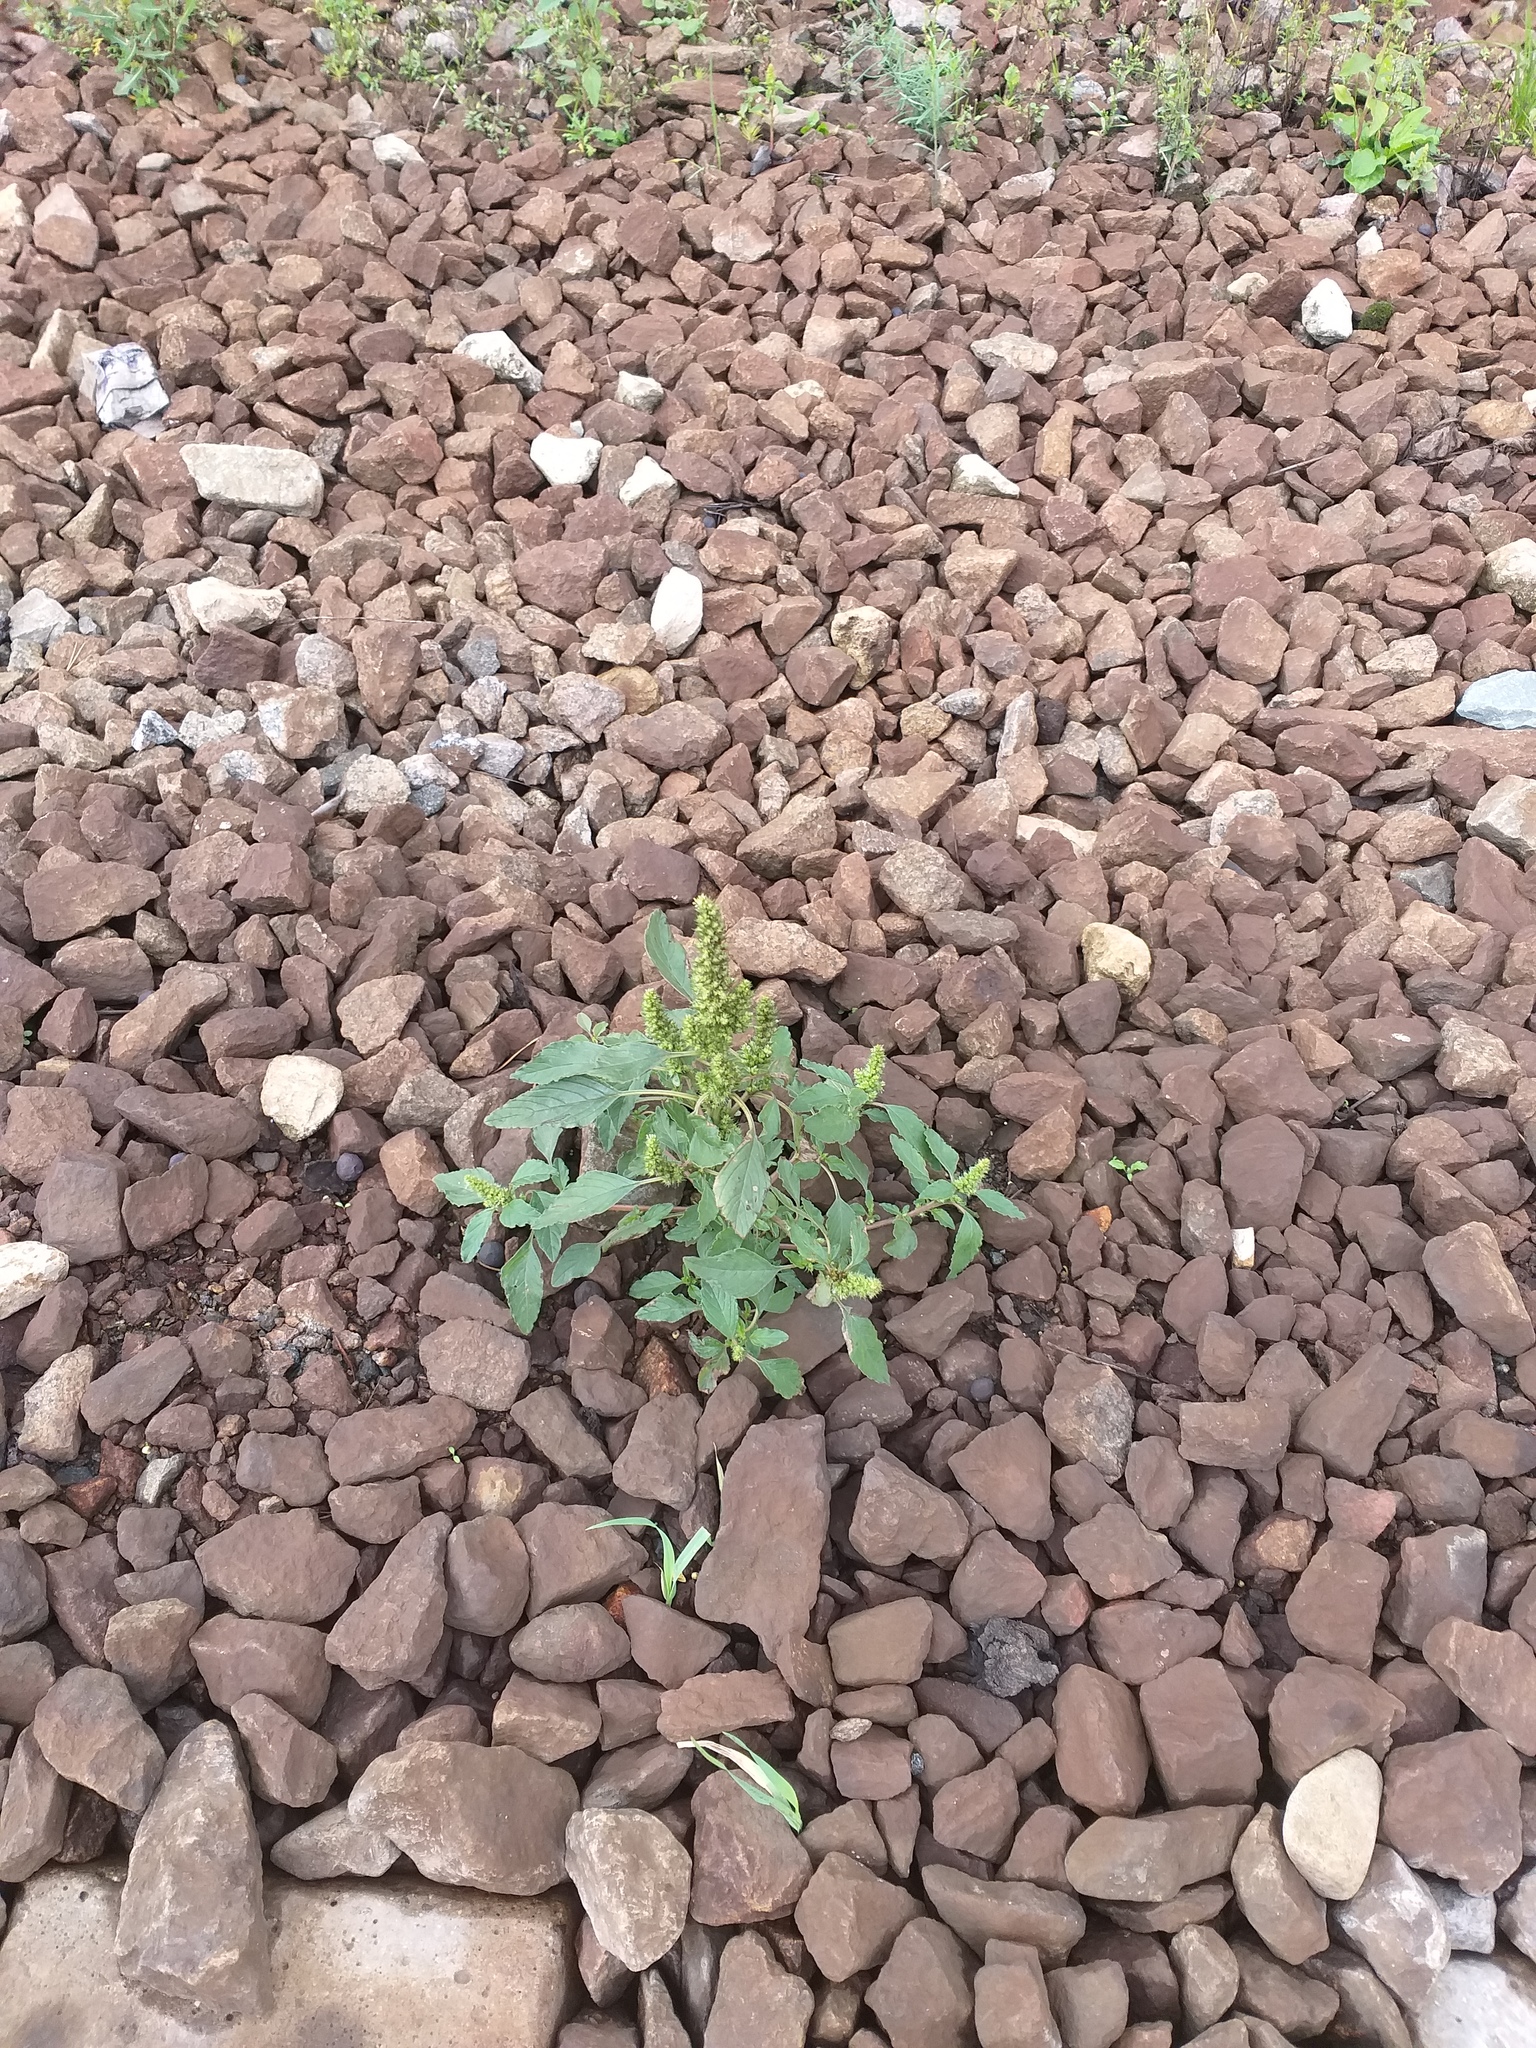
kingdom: Plantae
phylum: Tracheophyta
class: Magnoliopsida
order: Caryophyllales
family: Amaranthaceae
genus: Amaranthus
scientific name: Amaranthus retroflexus
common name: Redroot amaranth
